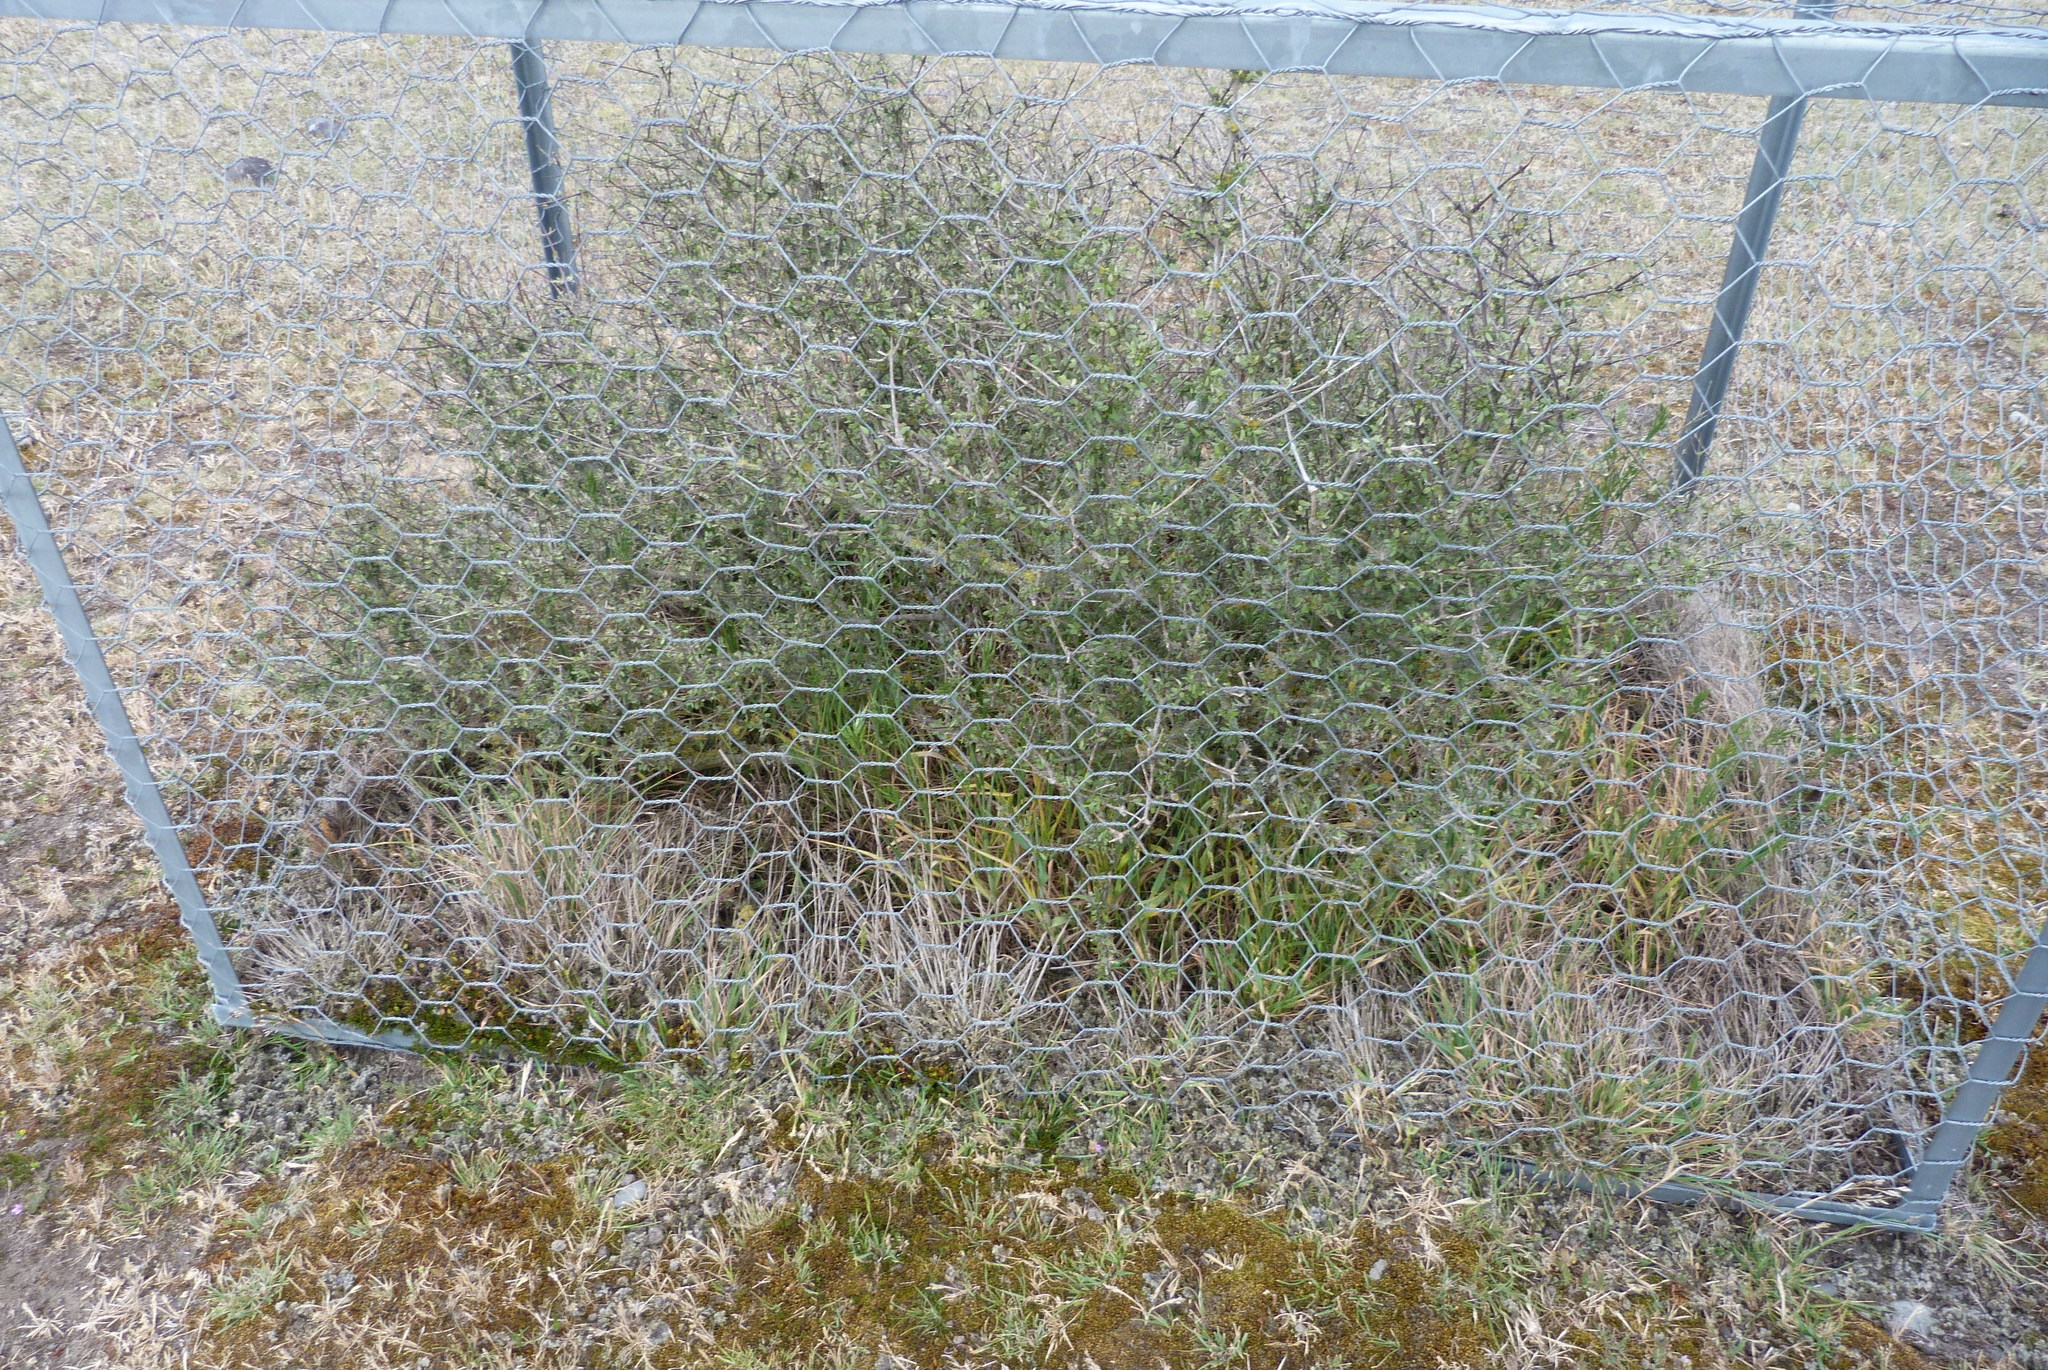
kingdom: Plantae
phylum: Tracheophyta
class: Magnoliopsida
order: Asterales
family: Asteraceae
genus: Olearia
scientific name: Olearia adenocarpa
